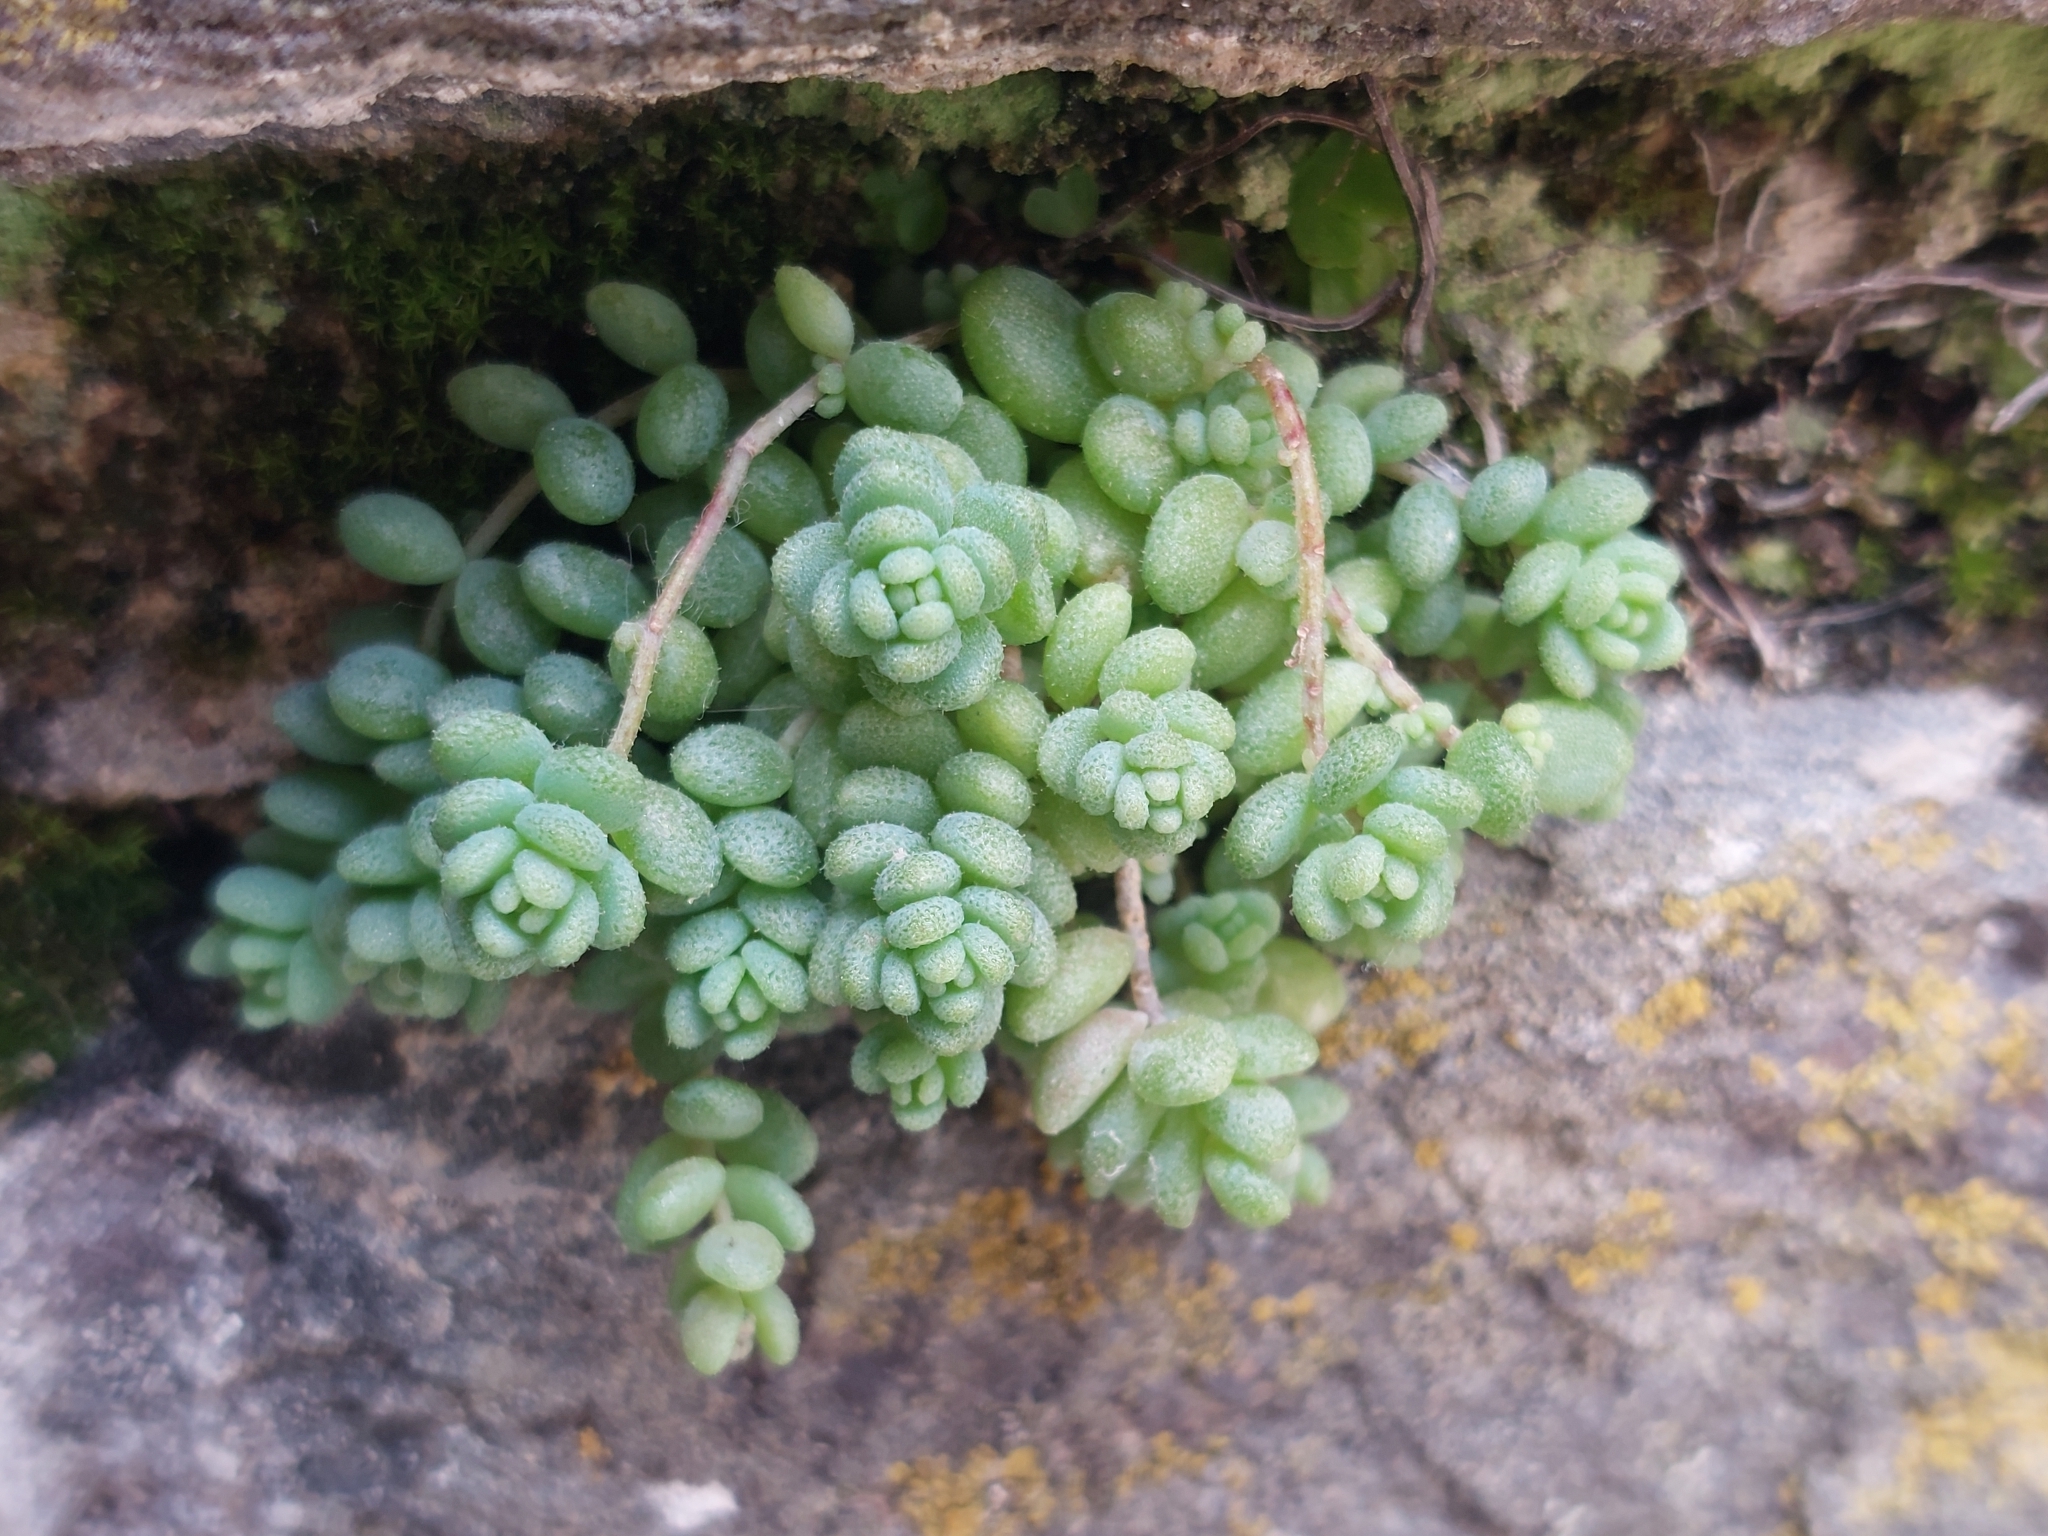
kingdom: Plantae
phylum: Tracheophyta
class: Magnoliopsida
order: Saxifragales
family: Crassulaceae
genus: Sedum
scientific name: Sedum dasyphyllum
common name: Thick-leaf stonecrop
